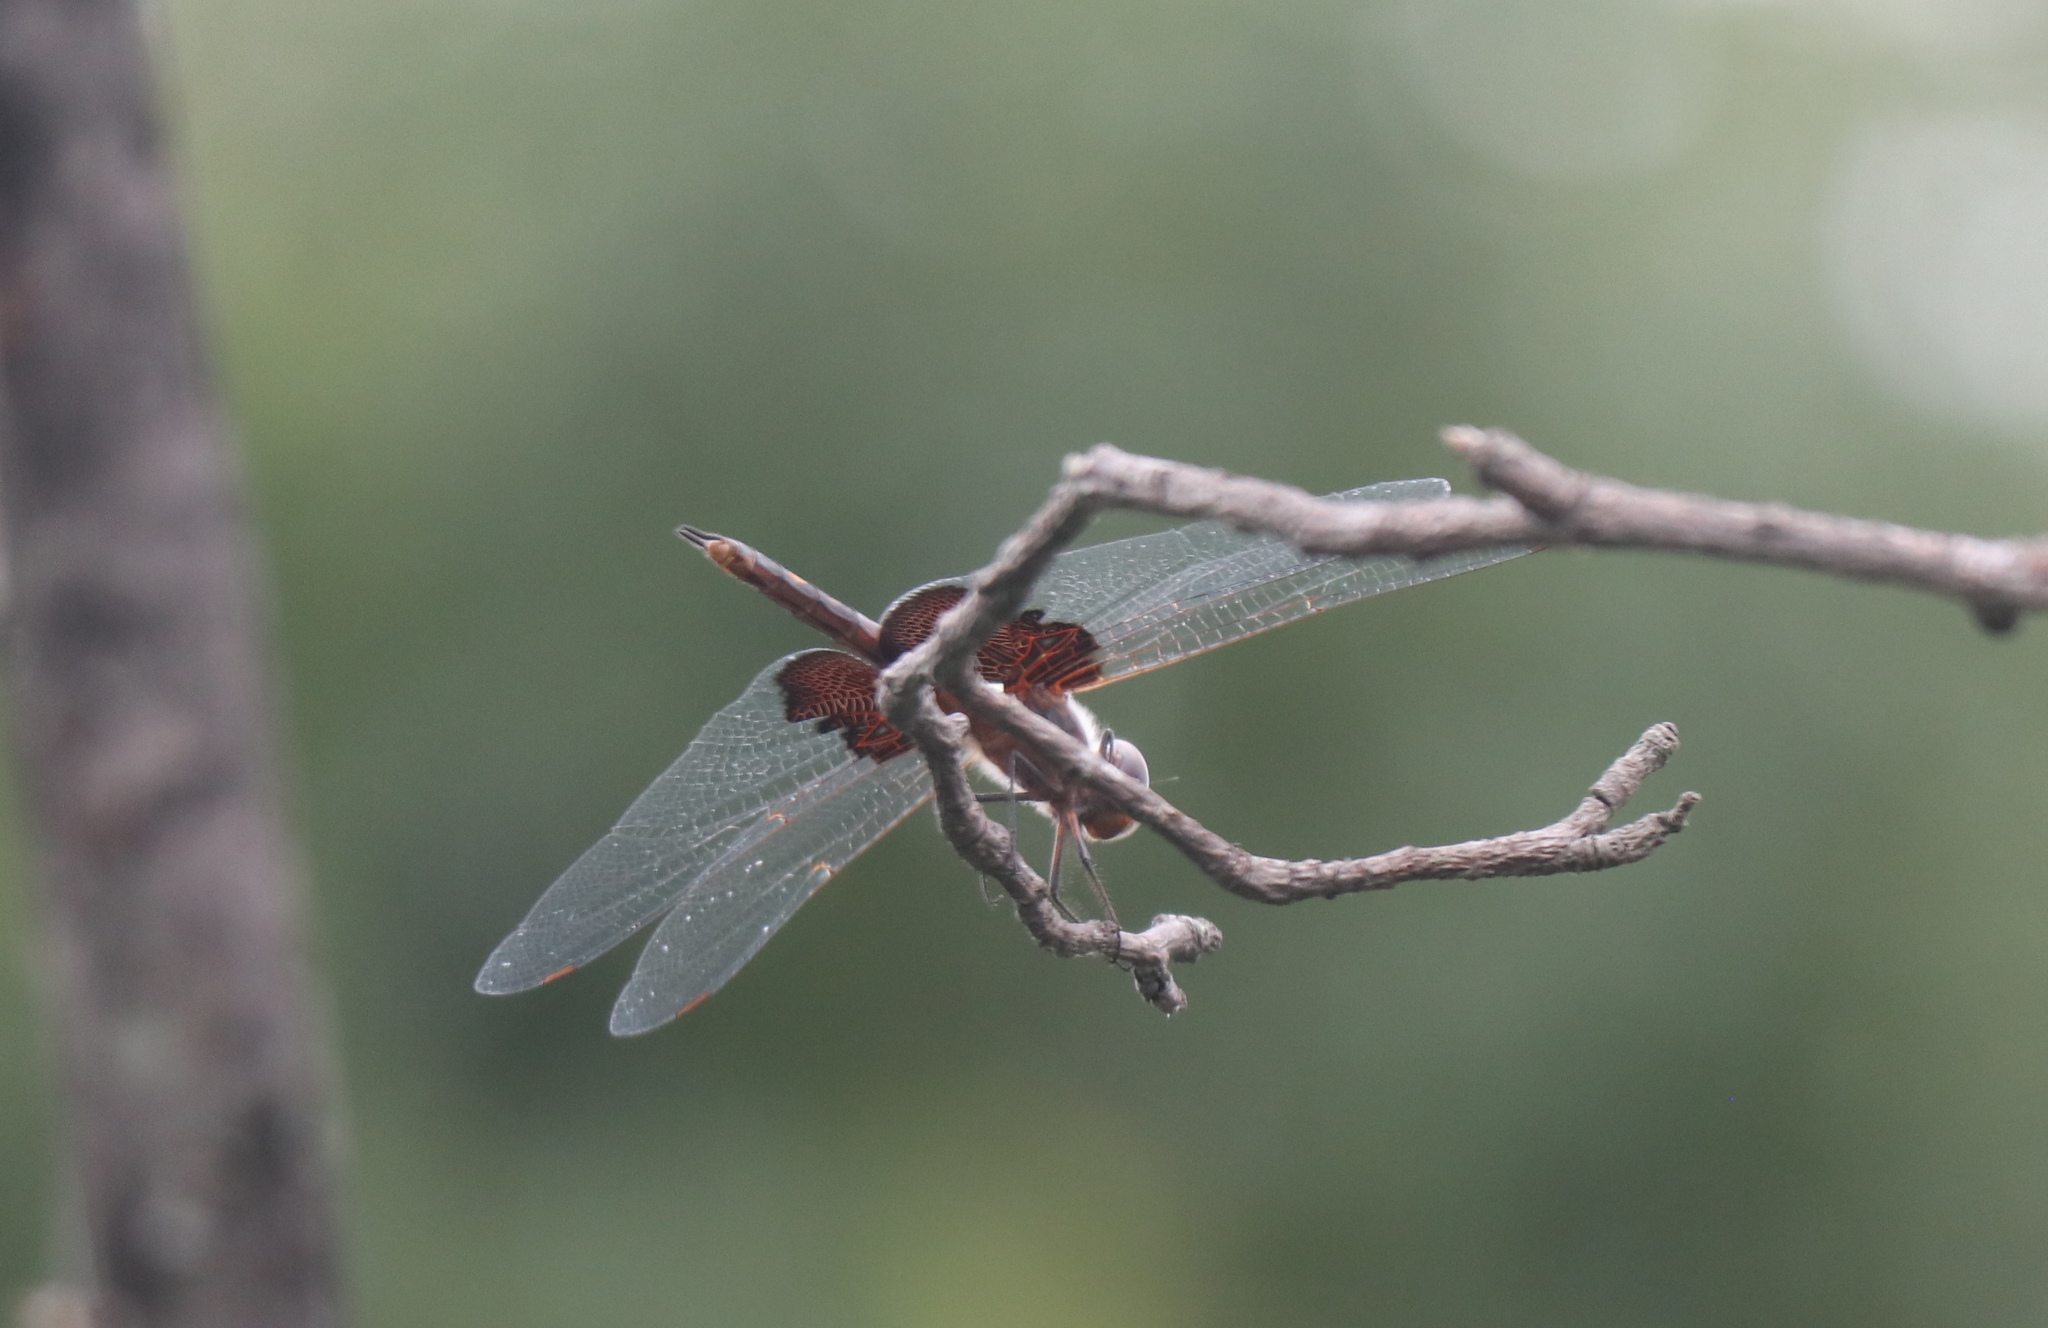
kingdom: Animalia
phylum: Arthropoda
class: Insecta
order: Odonata
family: Libellulidae
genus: Tramea
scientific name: Tramea lacerata
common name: Black saddlebags
